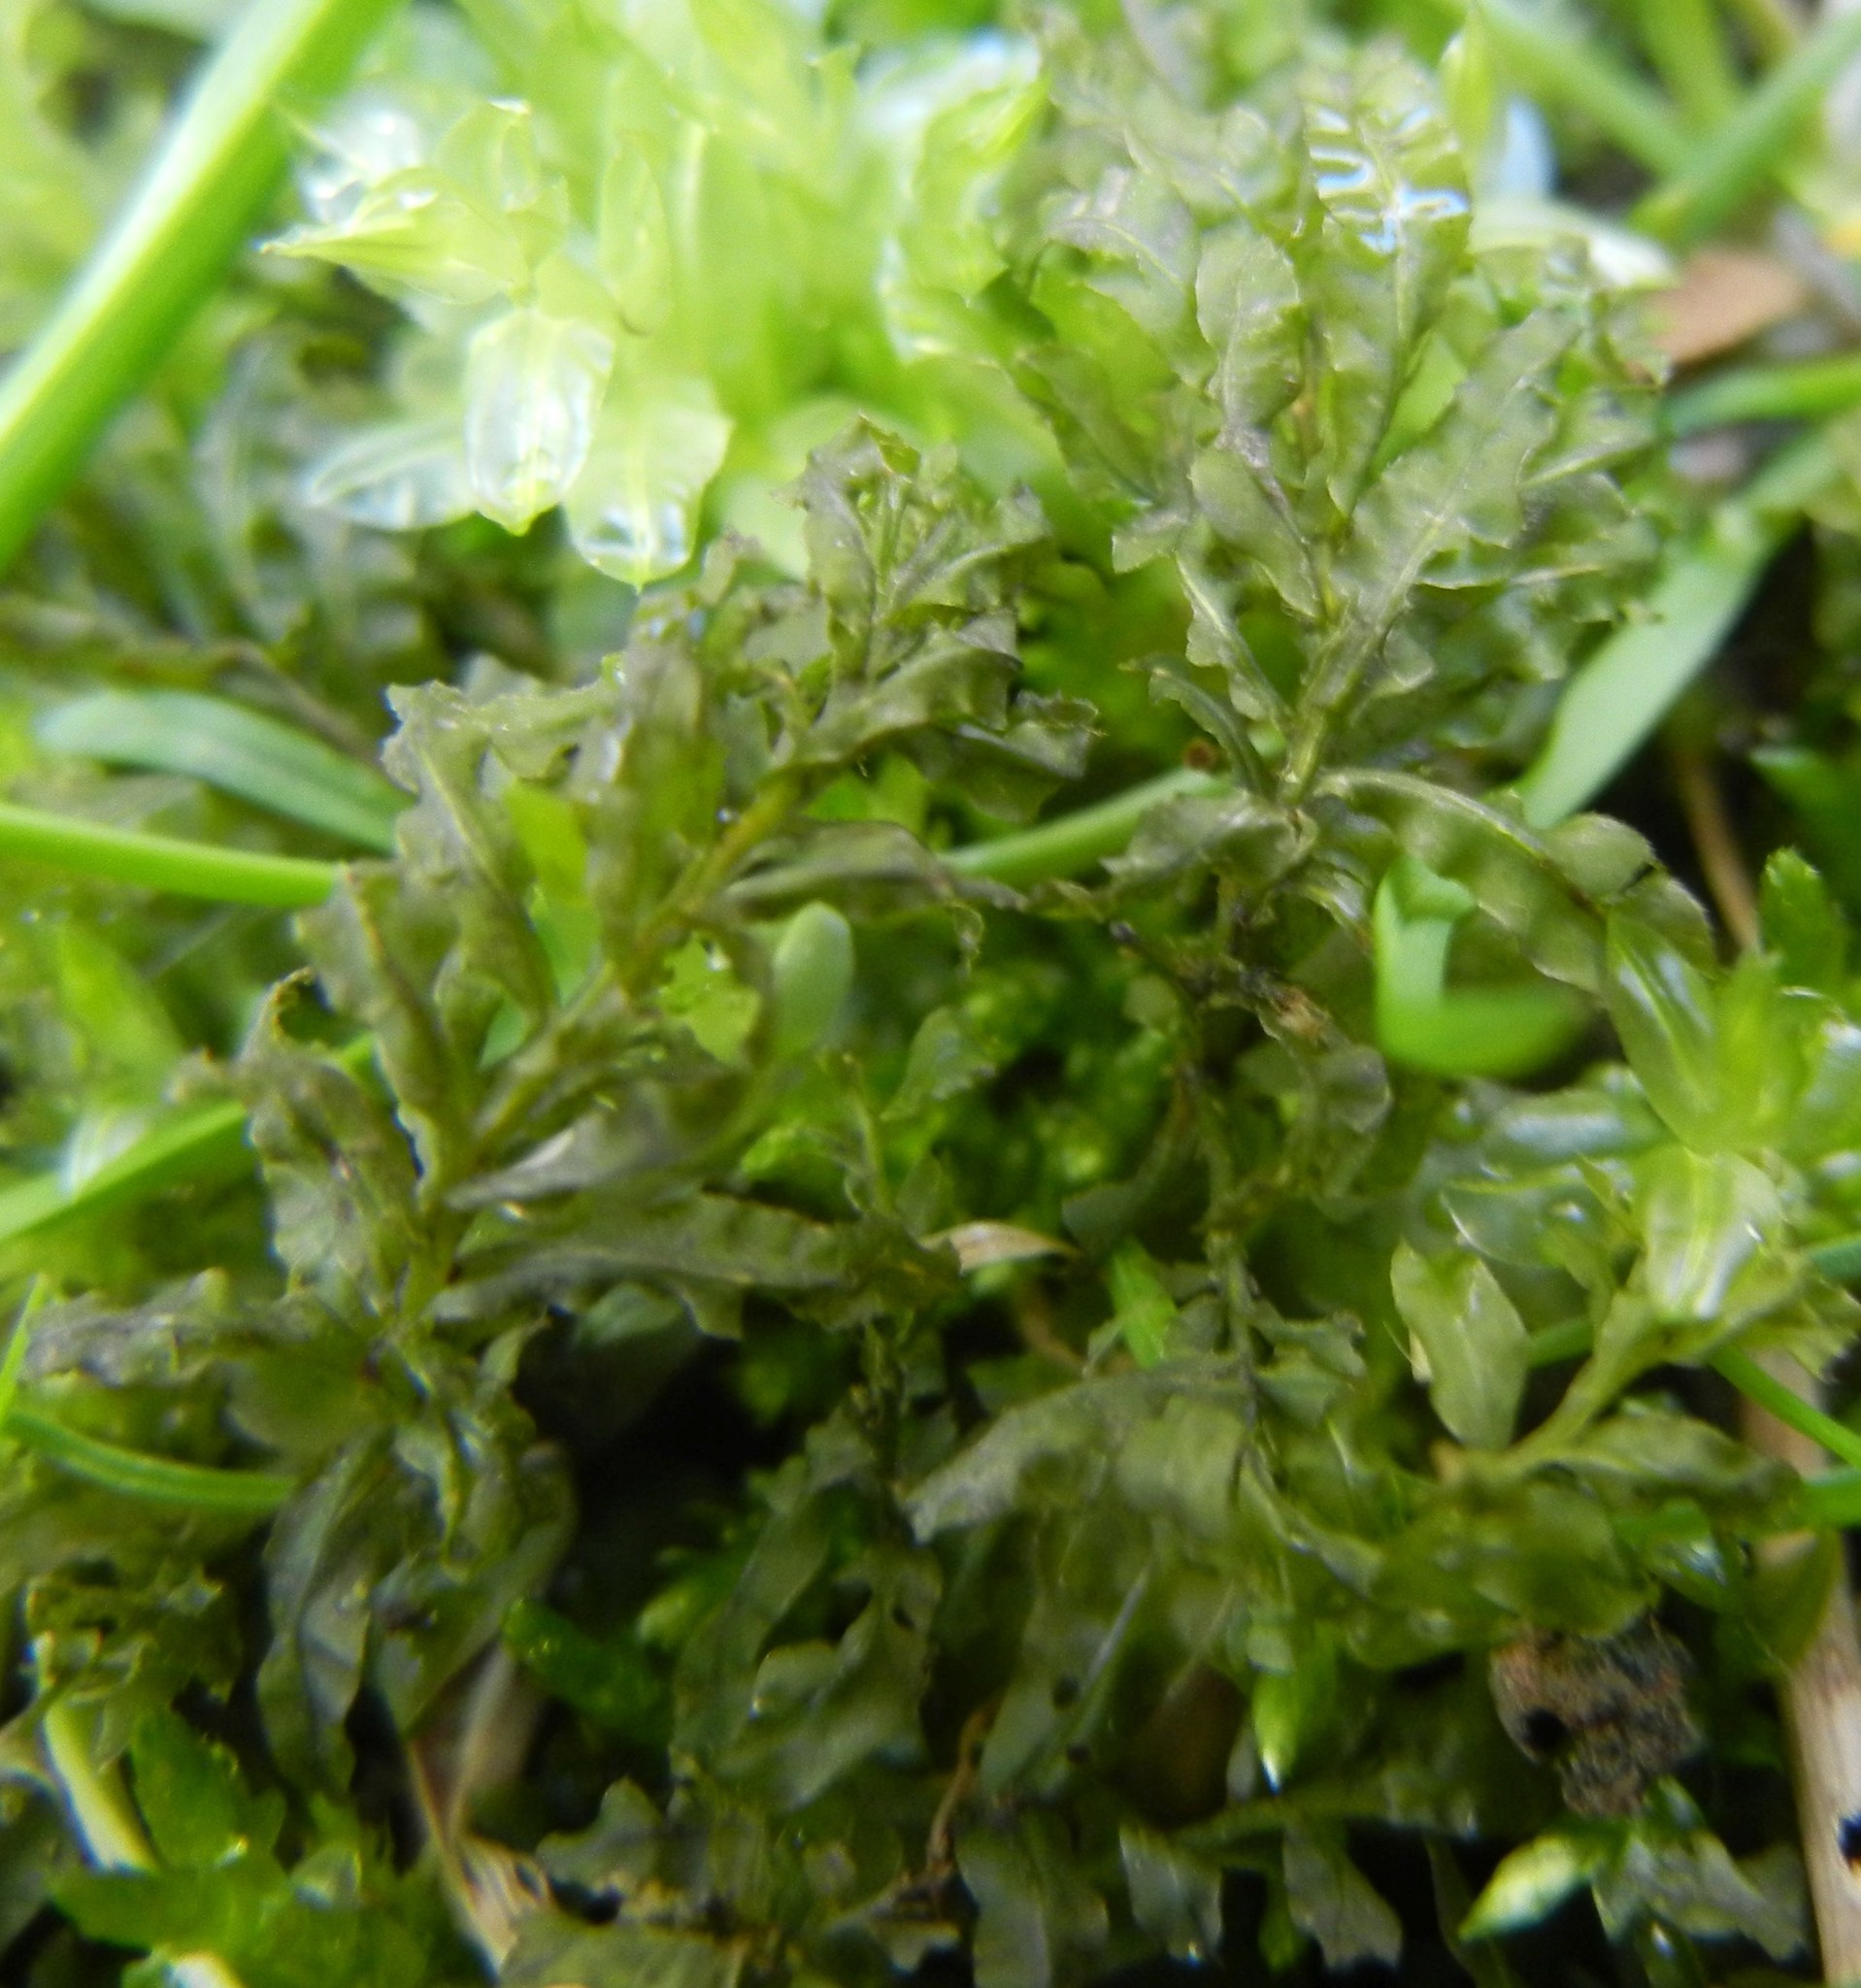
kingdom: Plantae
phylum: Bryophyta
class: Bryopsida
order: Bryales
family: Mniaceae
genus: Plagiomnium
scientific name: Plagiomnium undulatum
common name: Hart's-tongue thyme-moss
